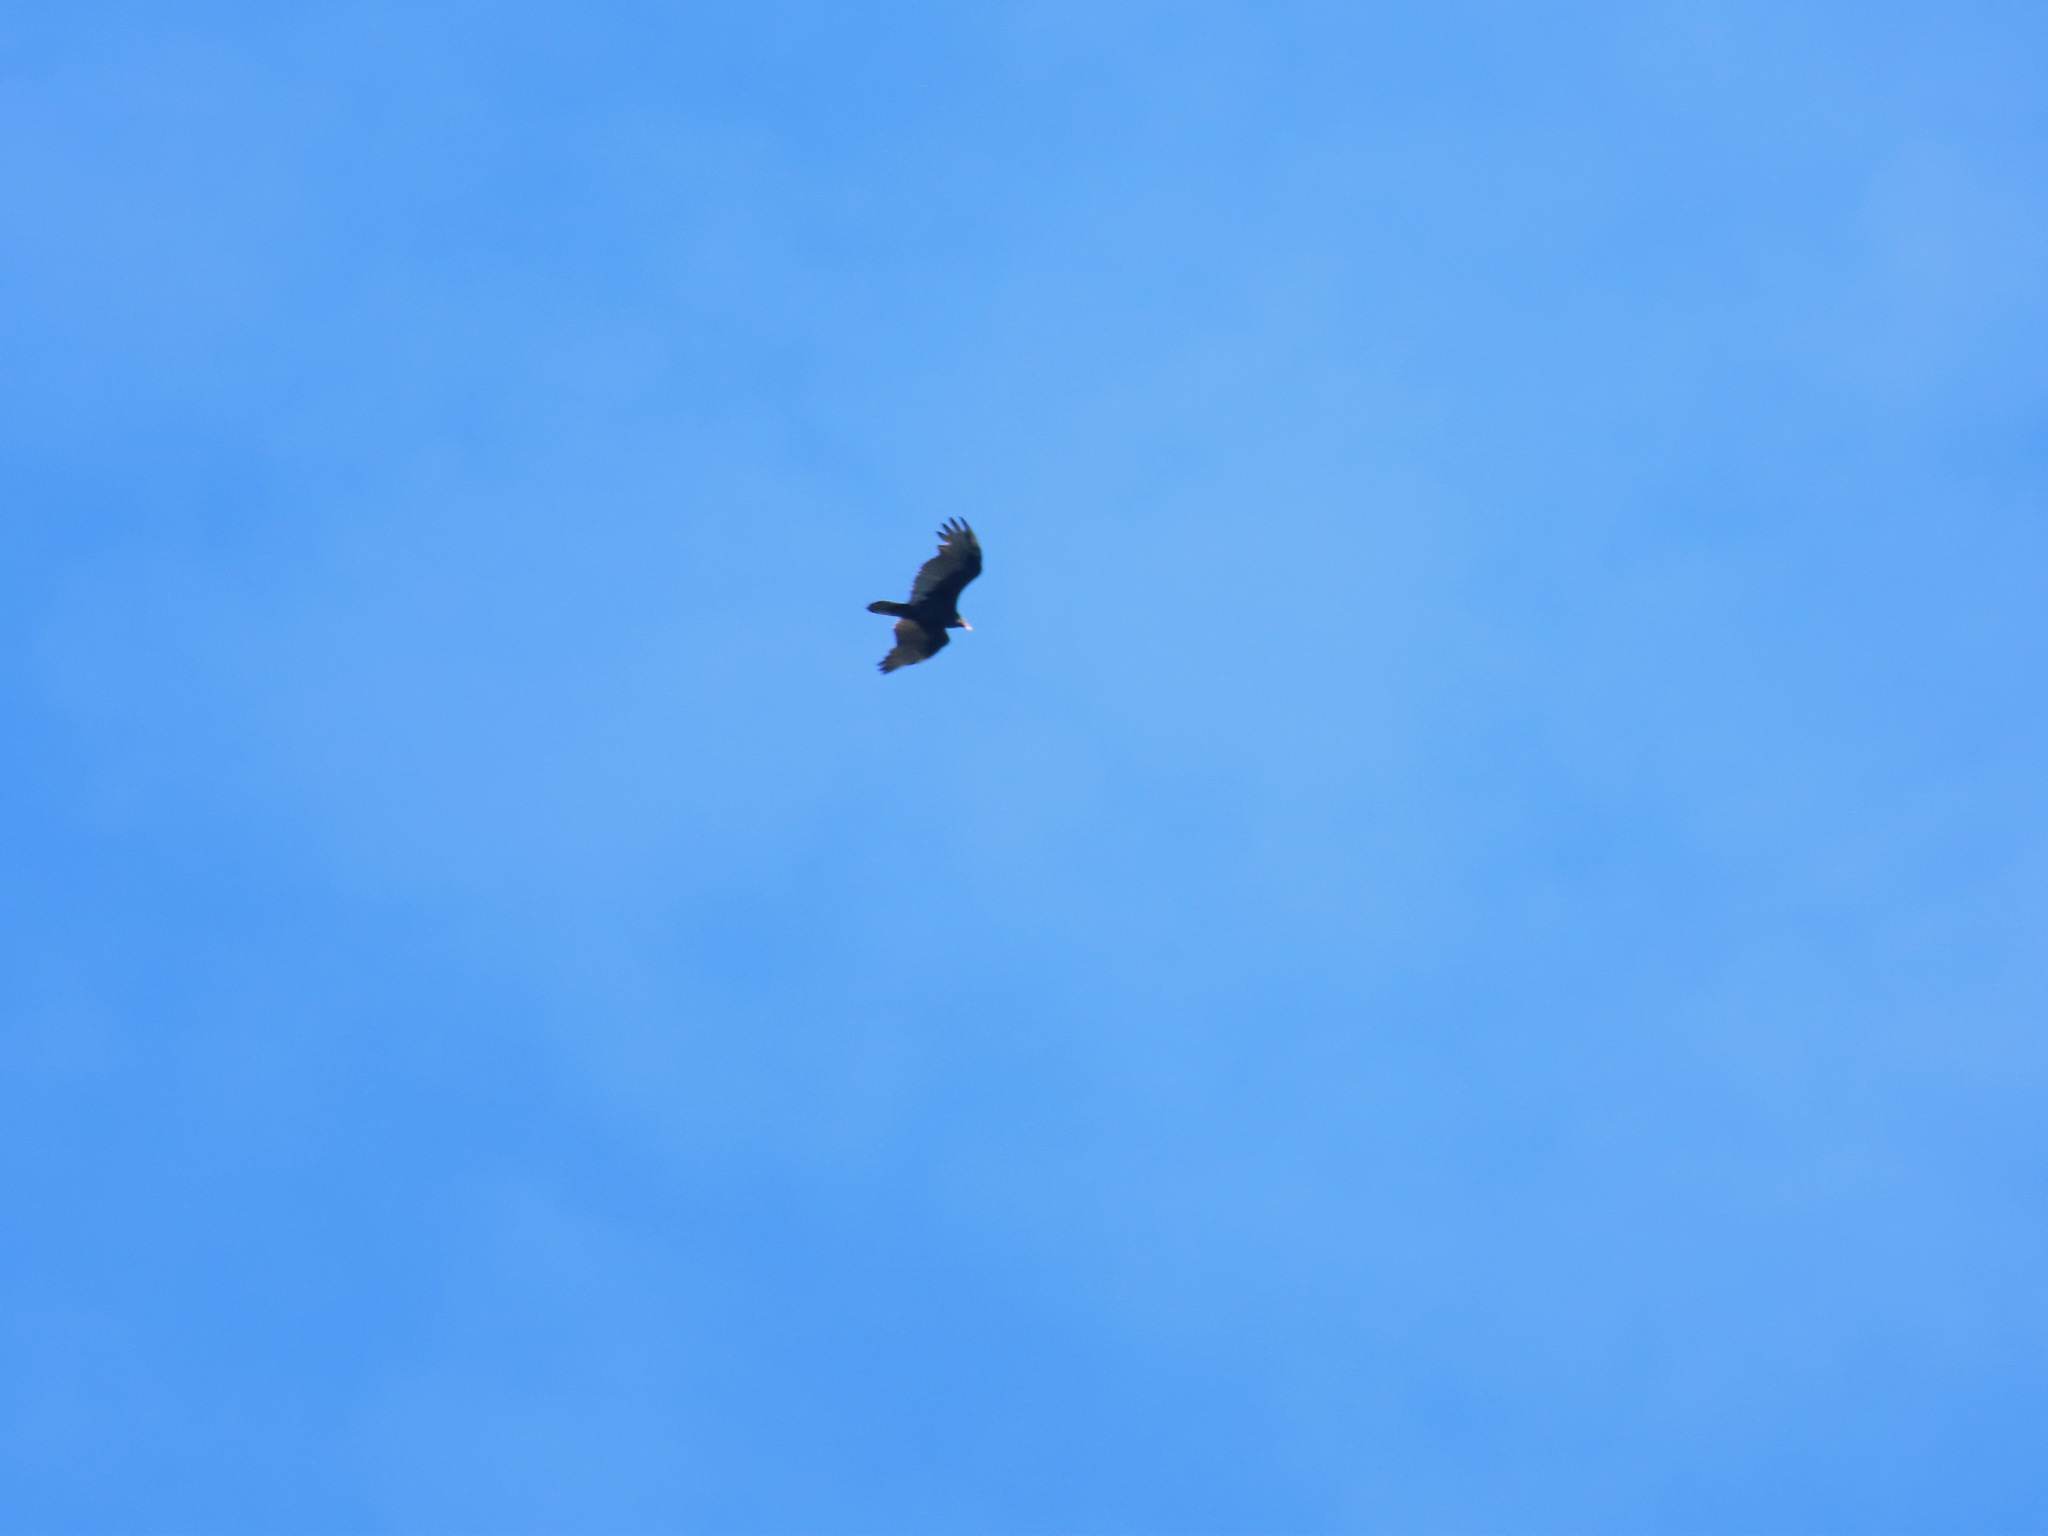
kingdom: Animalia
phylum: Chordata
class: Aves
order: Accipitriformes
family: Cathartidae
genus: Cathartes
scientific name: Cathartes aura
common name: Turkey vulture
